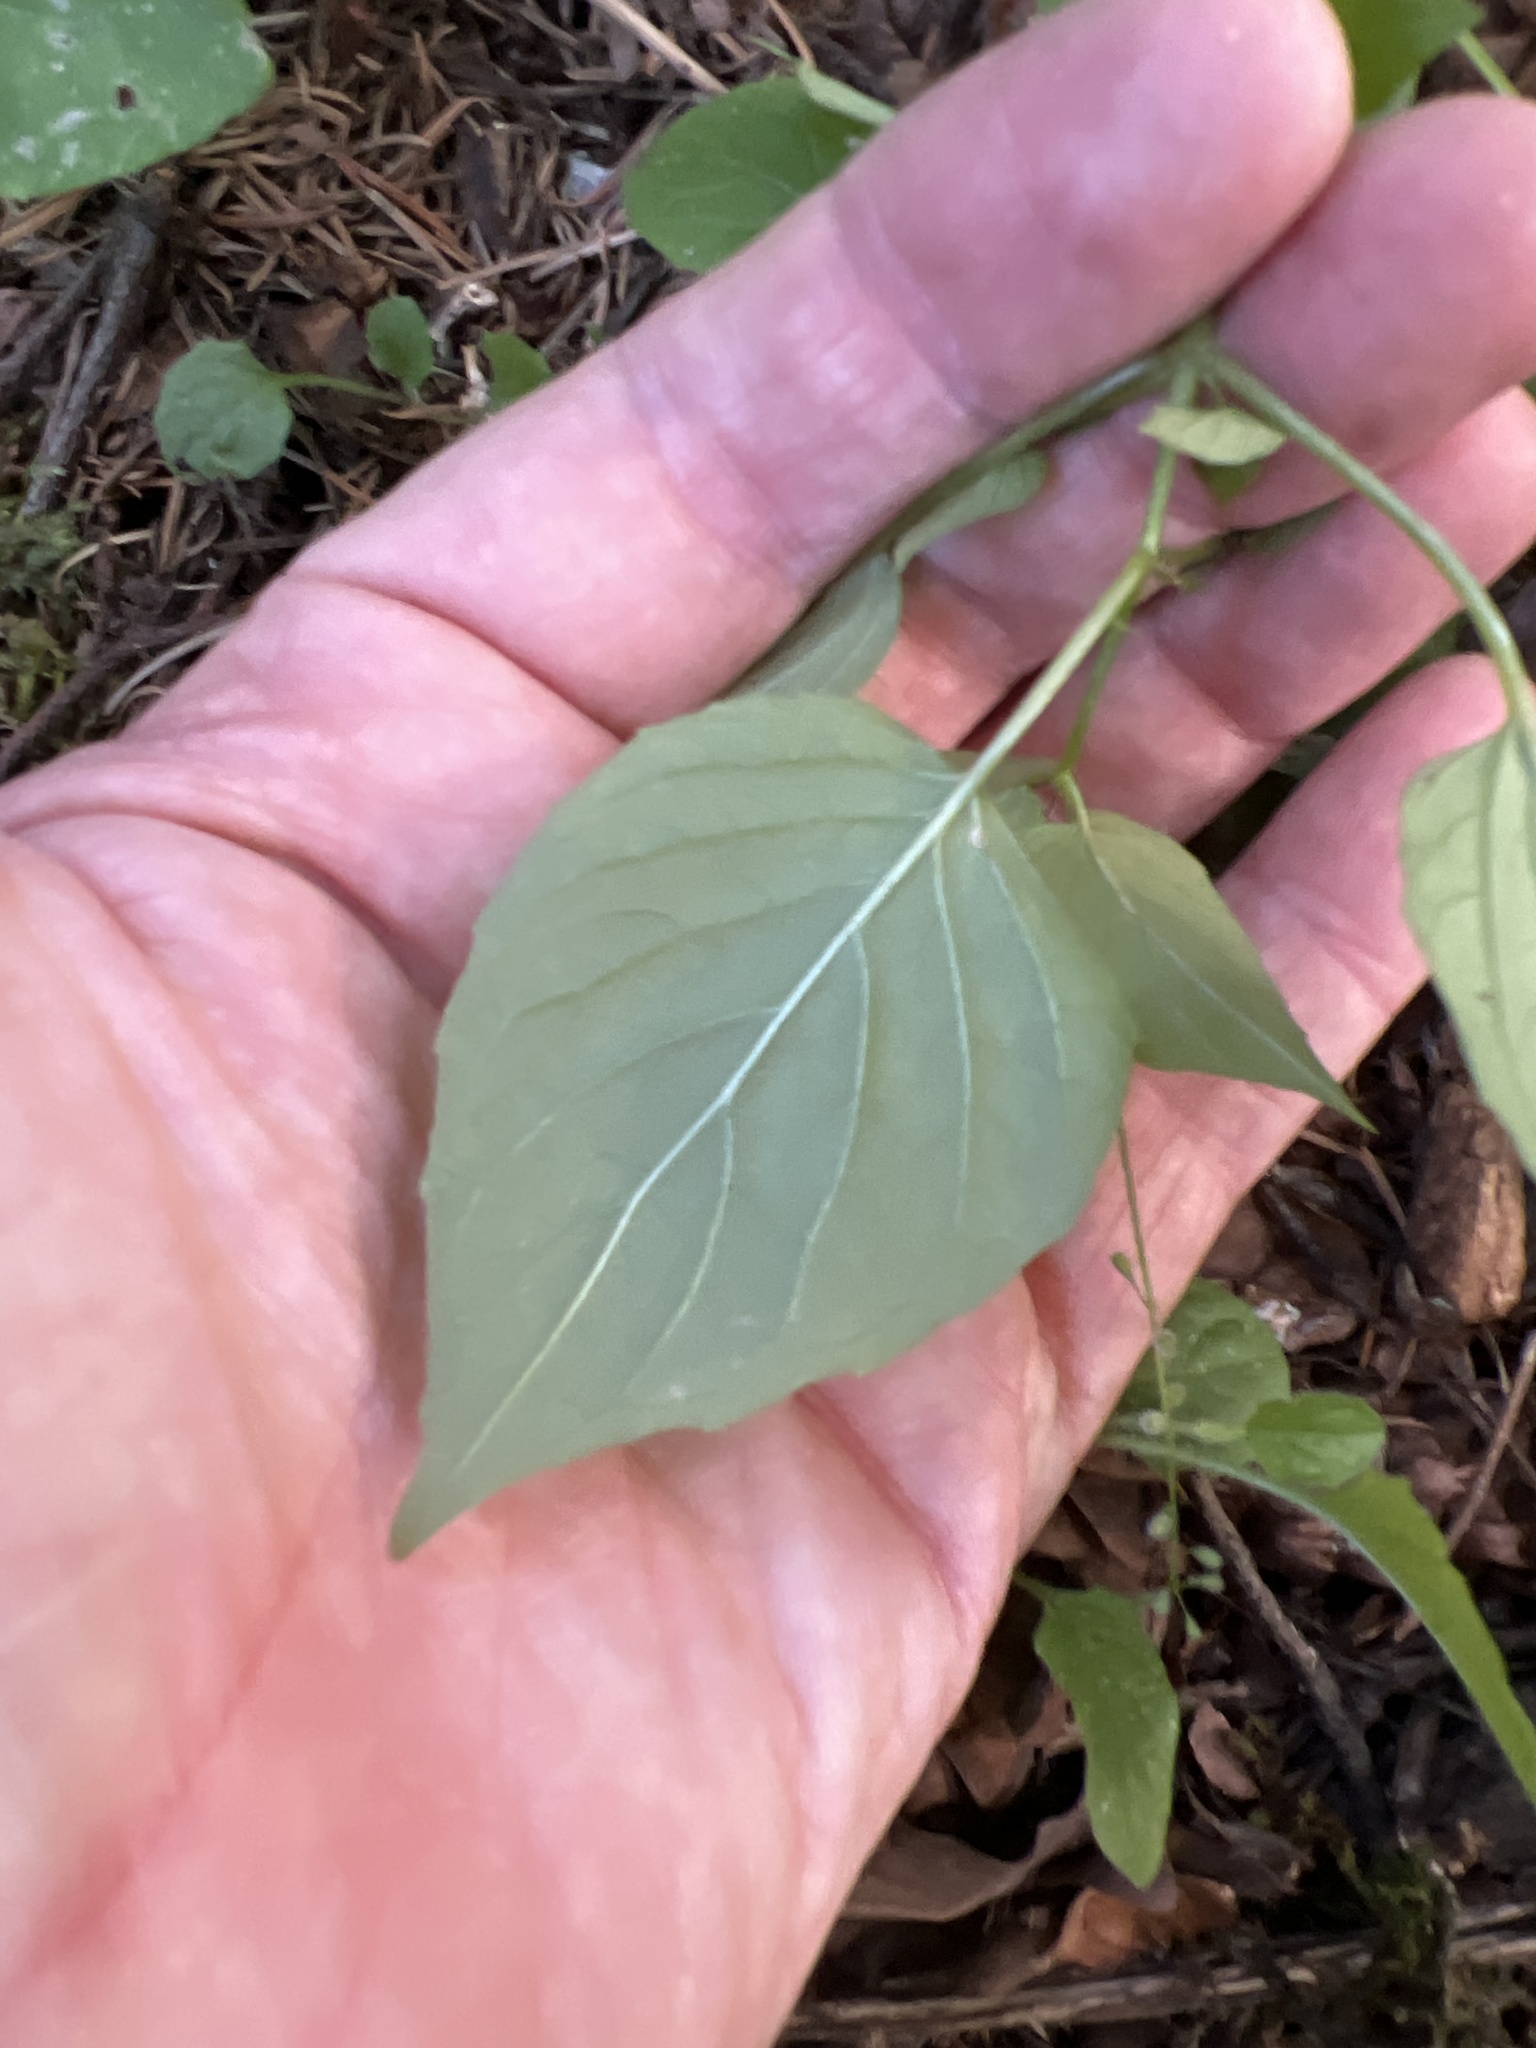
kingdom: Plantae
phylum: Tracheophyta
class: Magnoliopsida
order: Myrtales
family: Onagraceae
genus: Circaea
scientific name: Circaea alpina
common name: Alpine enchanter's-nightshade
